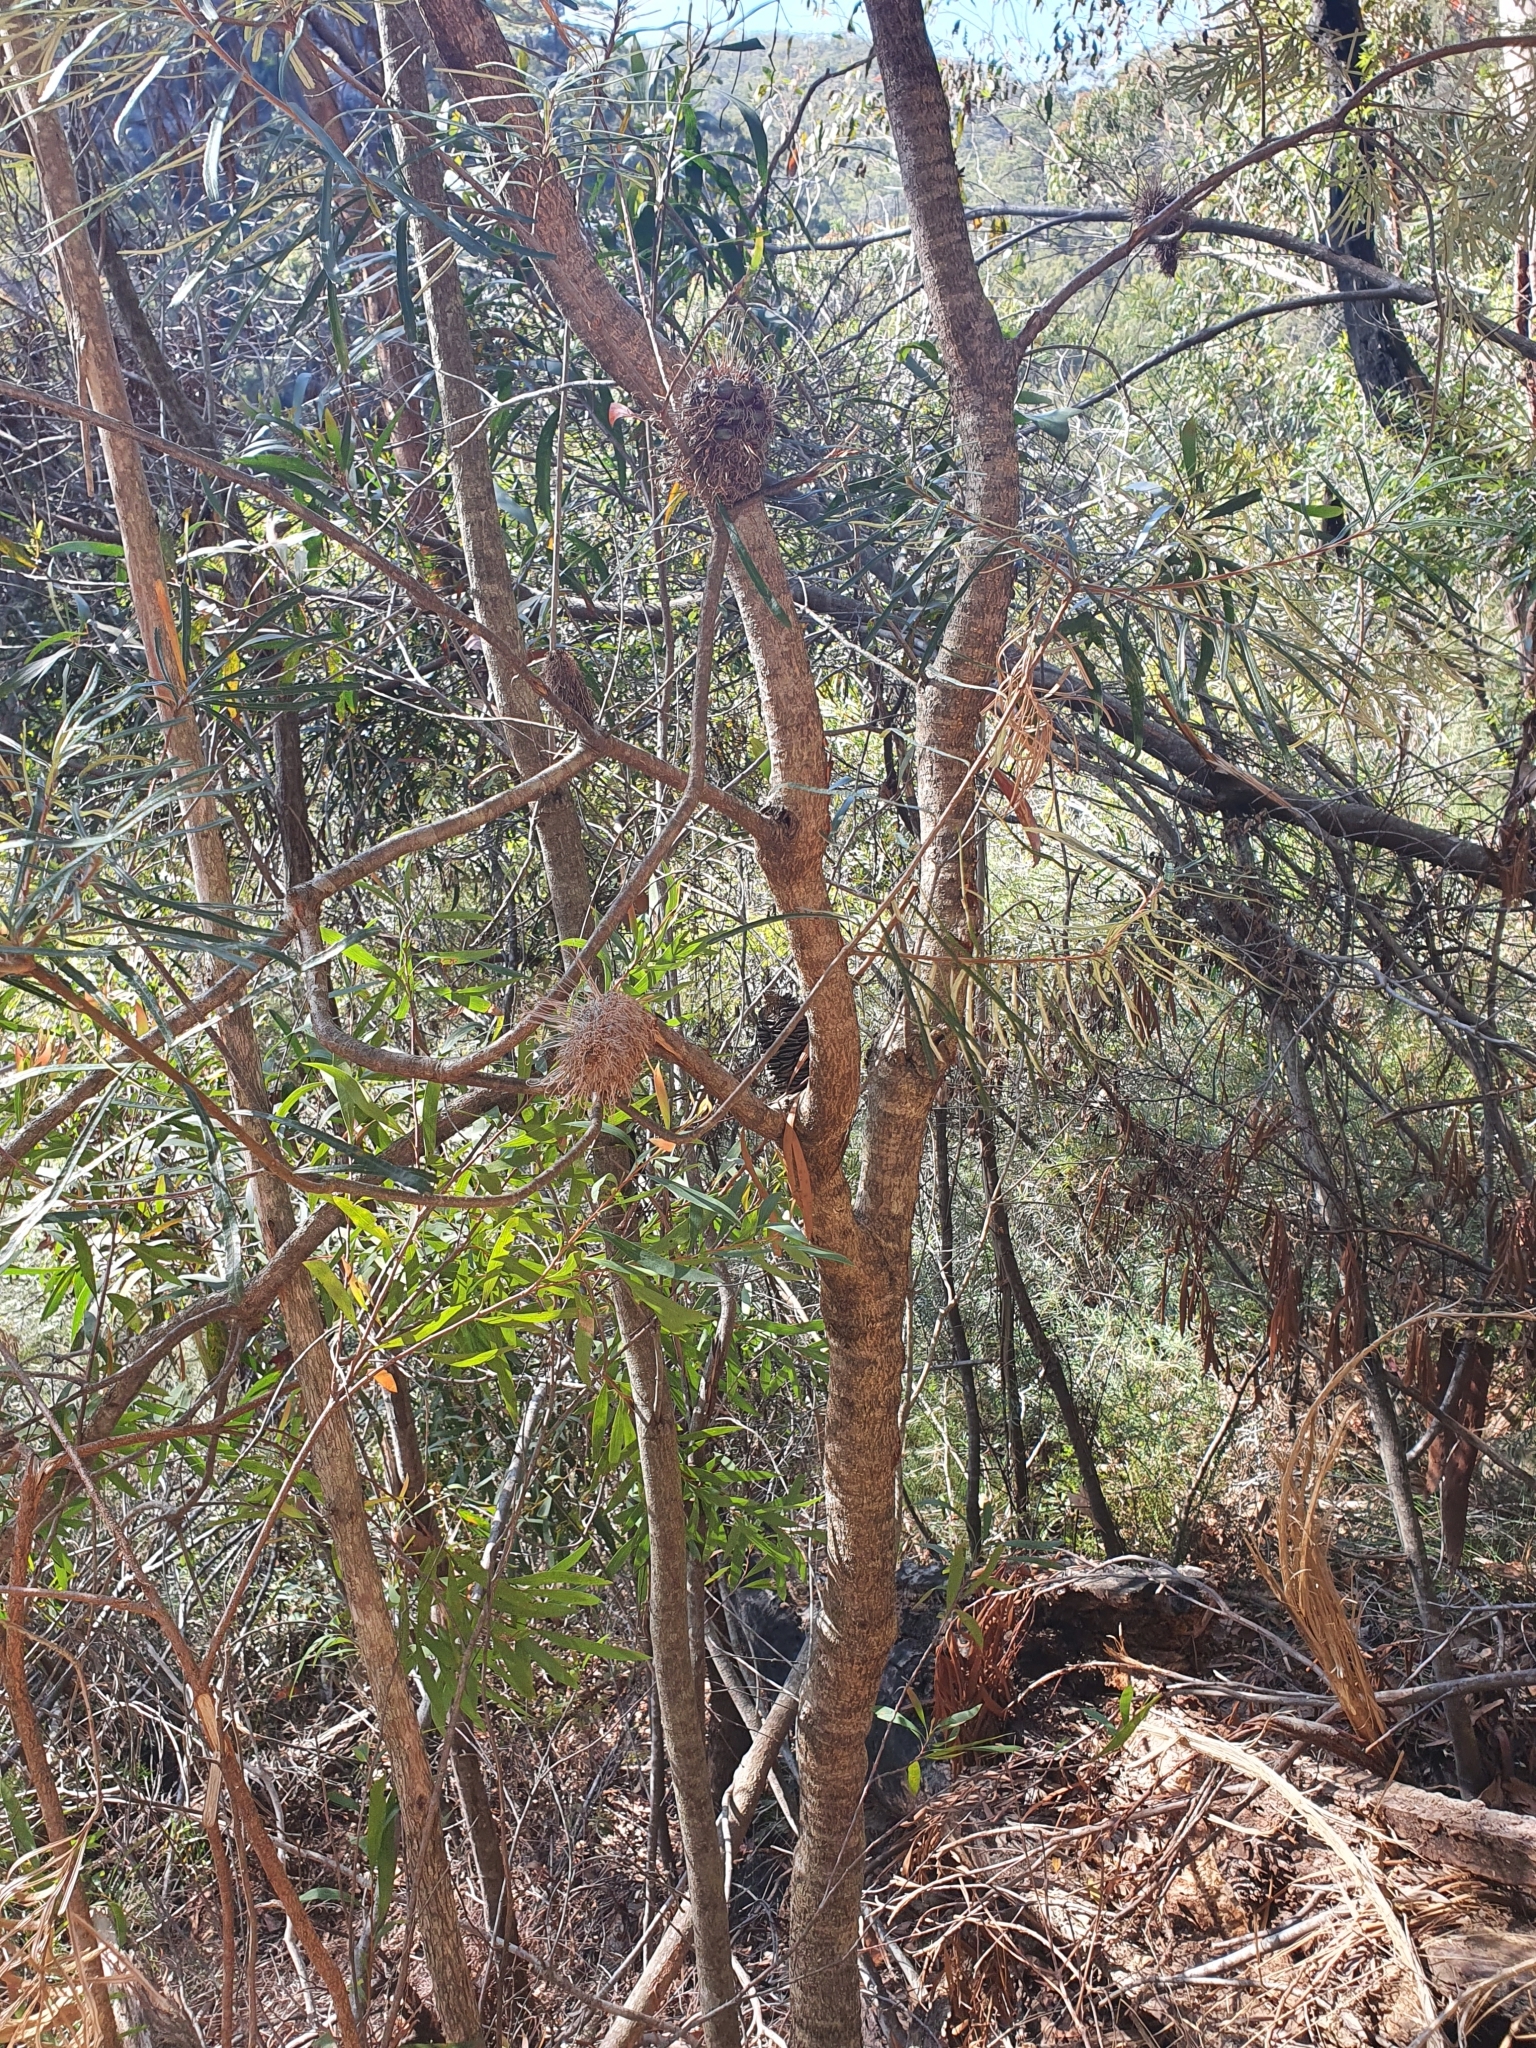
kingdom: Plantae
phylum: Tracheophyta
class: Magnoliopsida
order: Proteales
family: Proteaceae
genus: Banksia
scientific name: Banksia spinulosa
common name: Hairpin banksia
